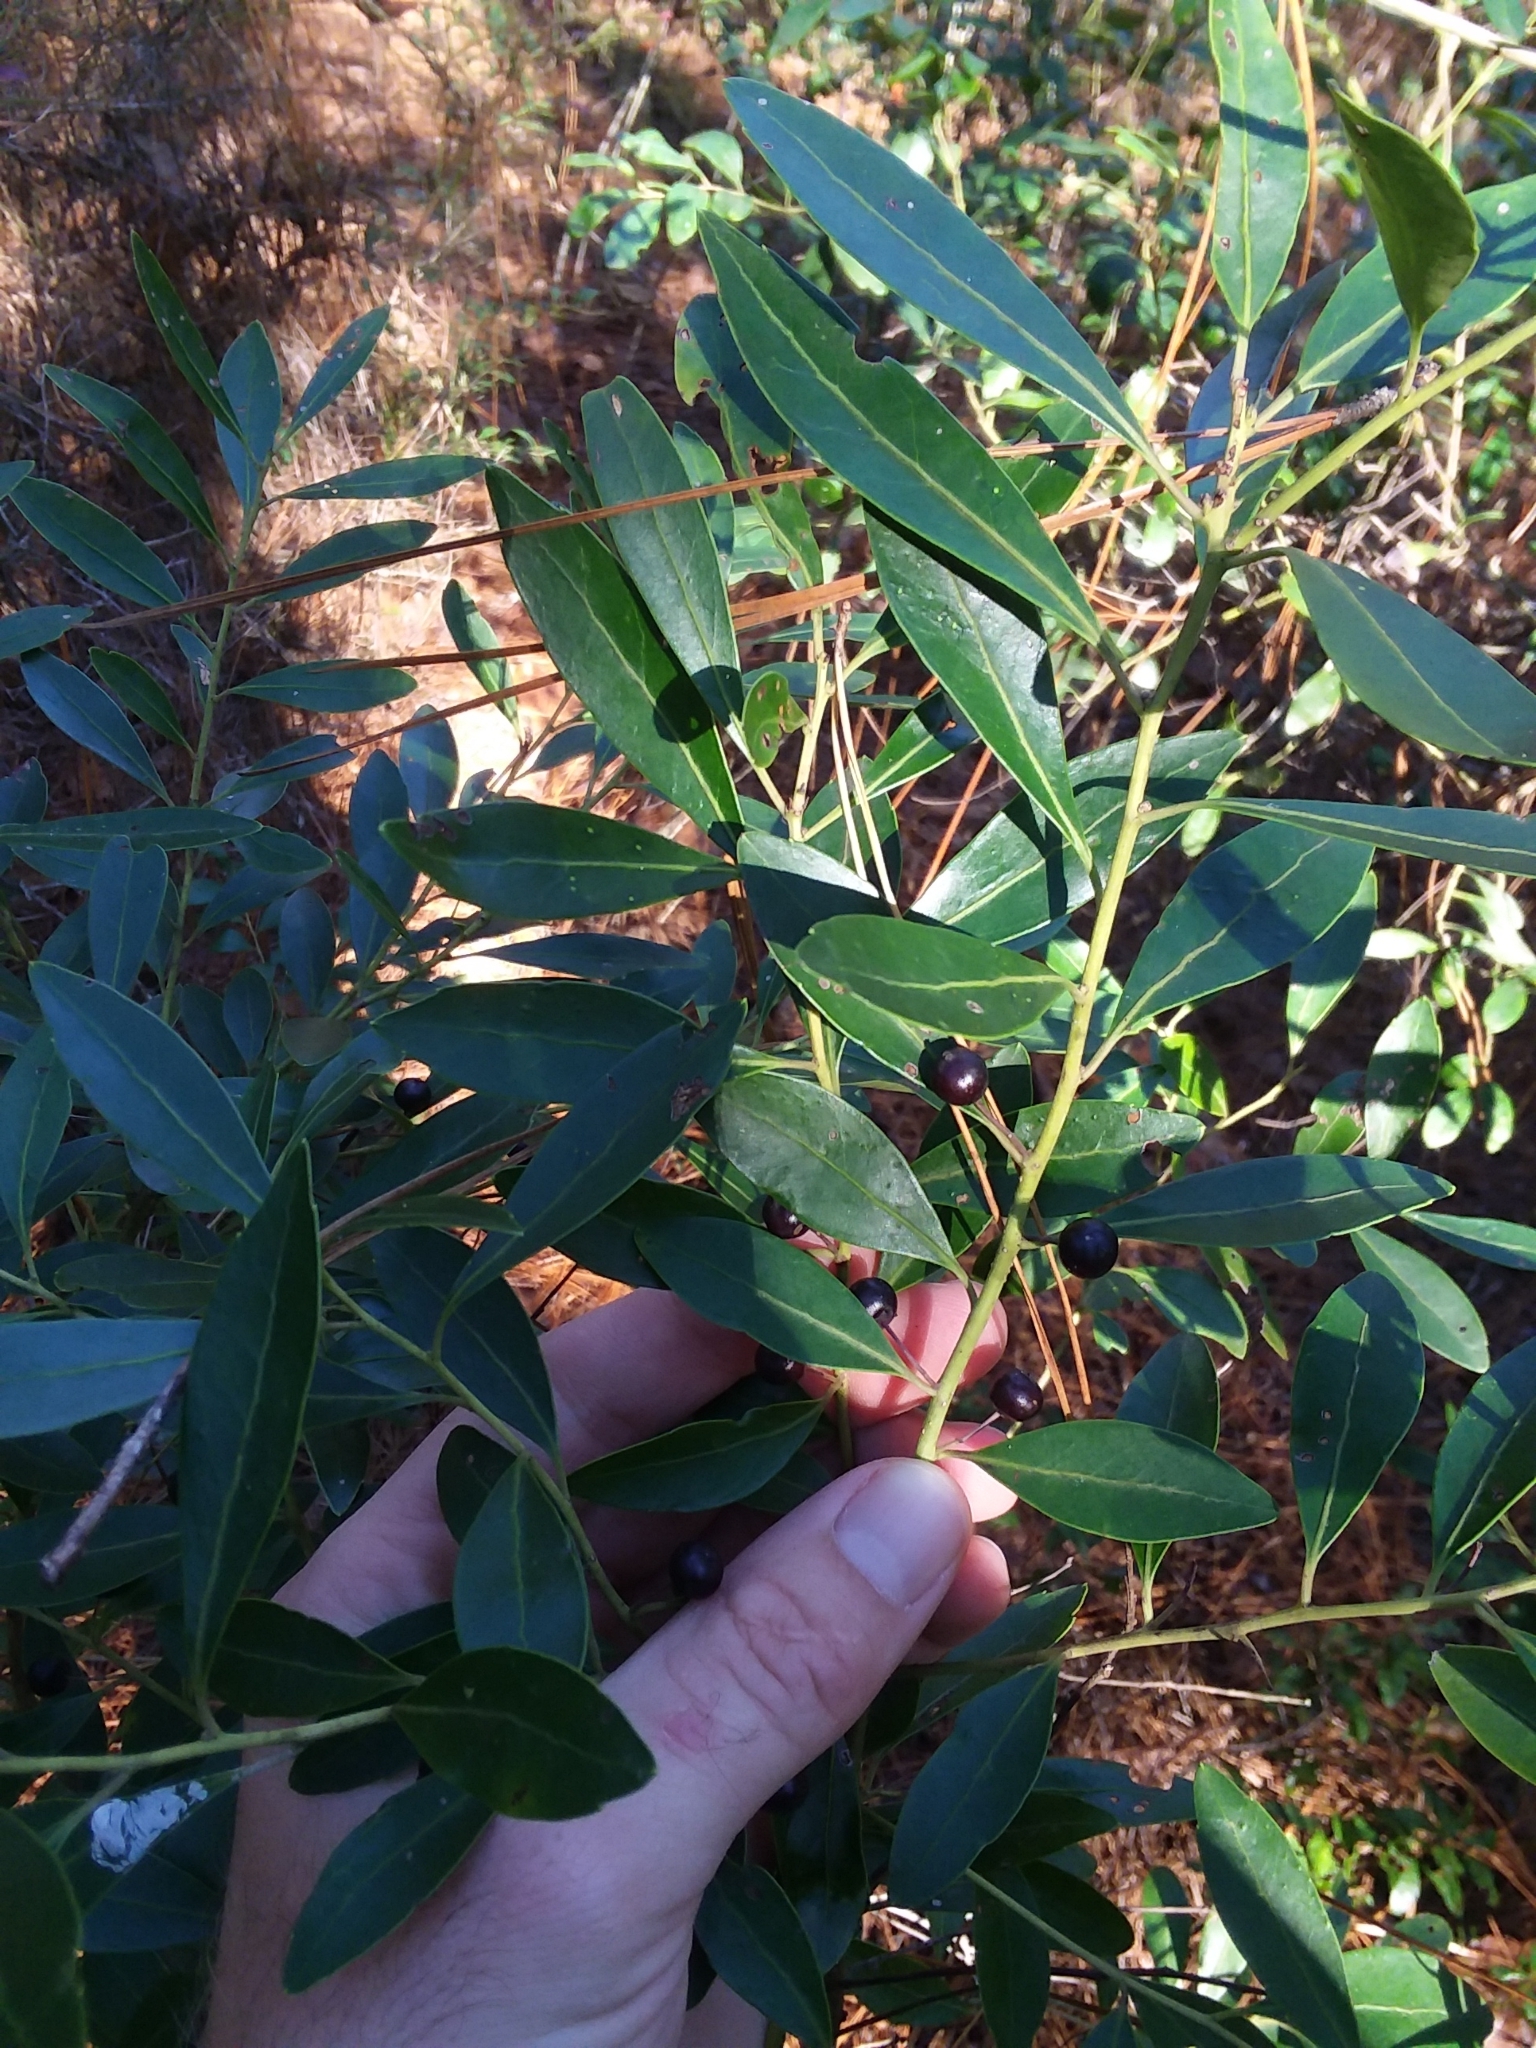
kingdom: Plantae
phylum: Tracheophyta
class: Magnoliopsida
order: Aquifoliales
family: Aquifoliaceae
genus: Ilex
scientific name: Ilex glabra
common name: Bitter gallberry
